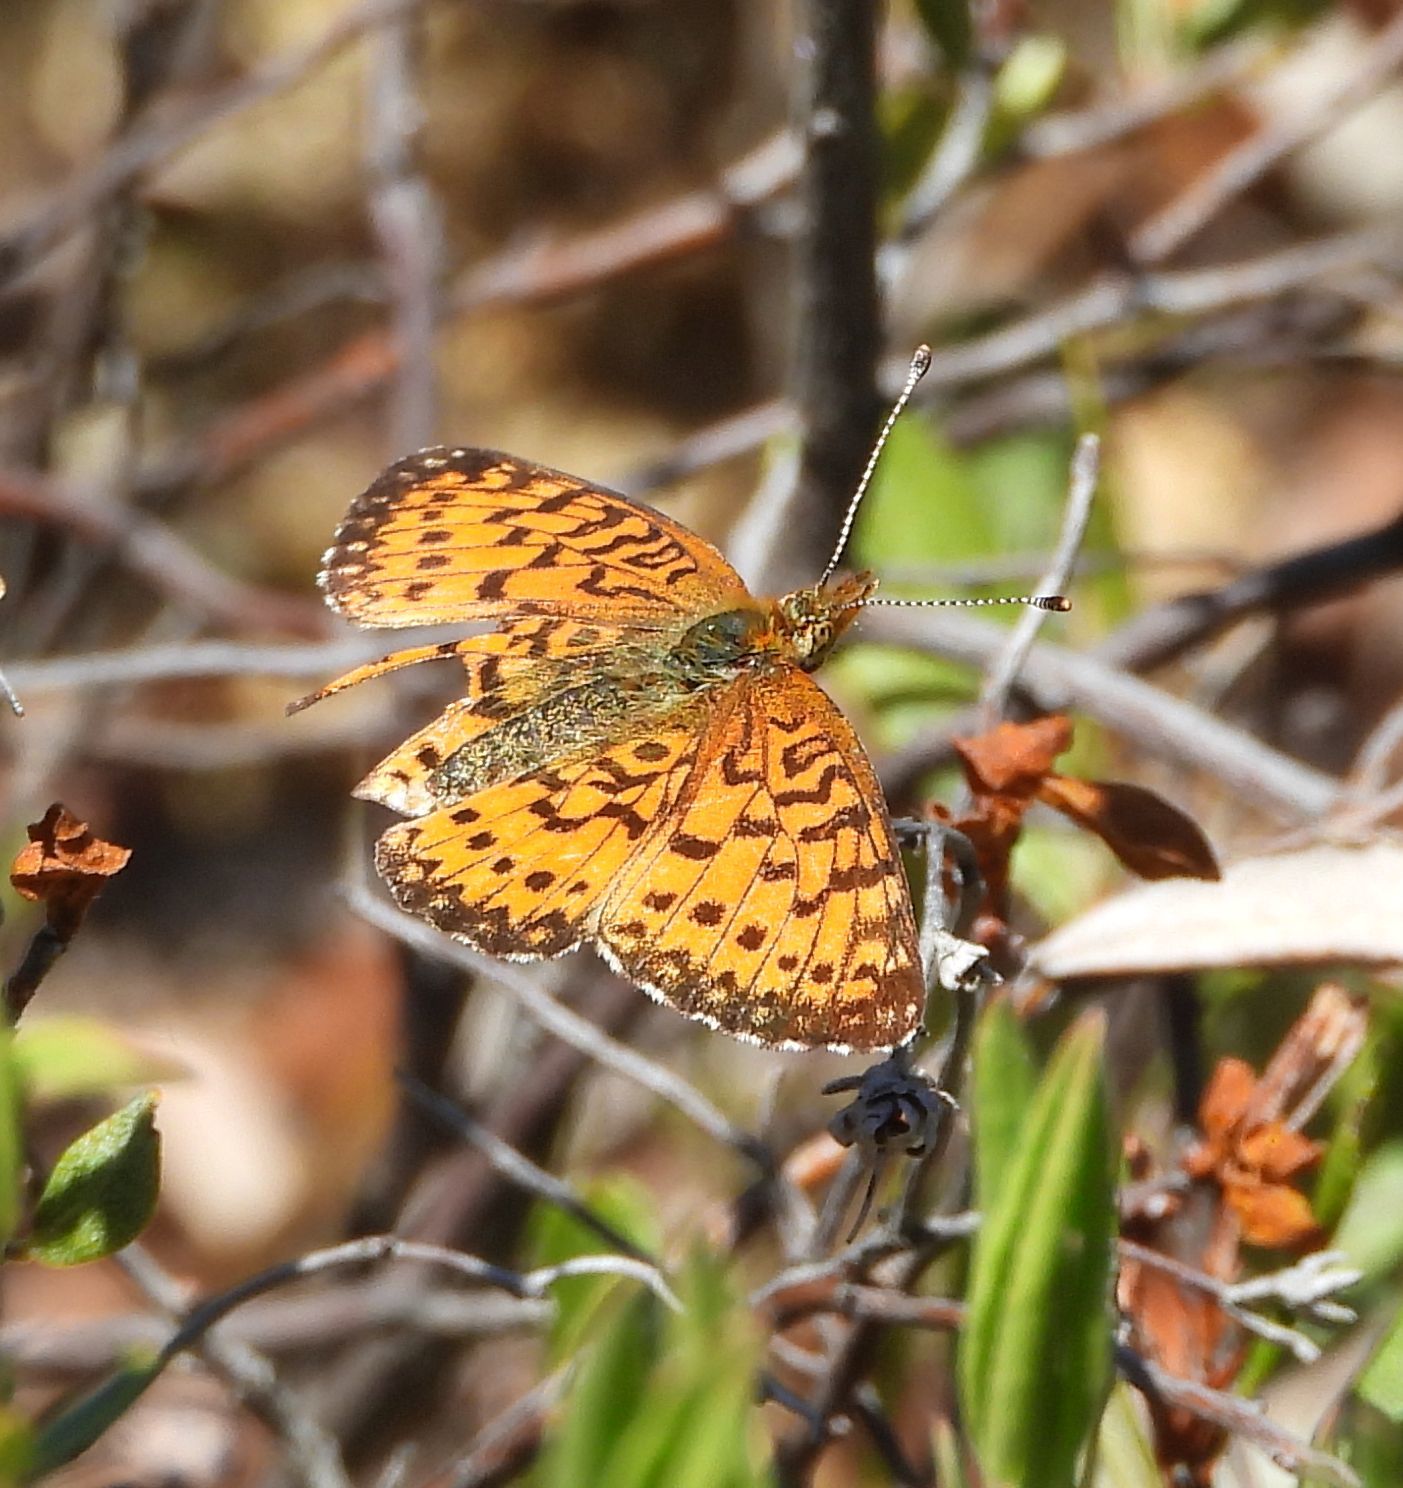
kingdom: Animalia
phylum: Arthropoda
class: Insecta
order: Lepidoptera
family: Nymphalidae
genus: Boloria
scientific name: Boloria
